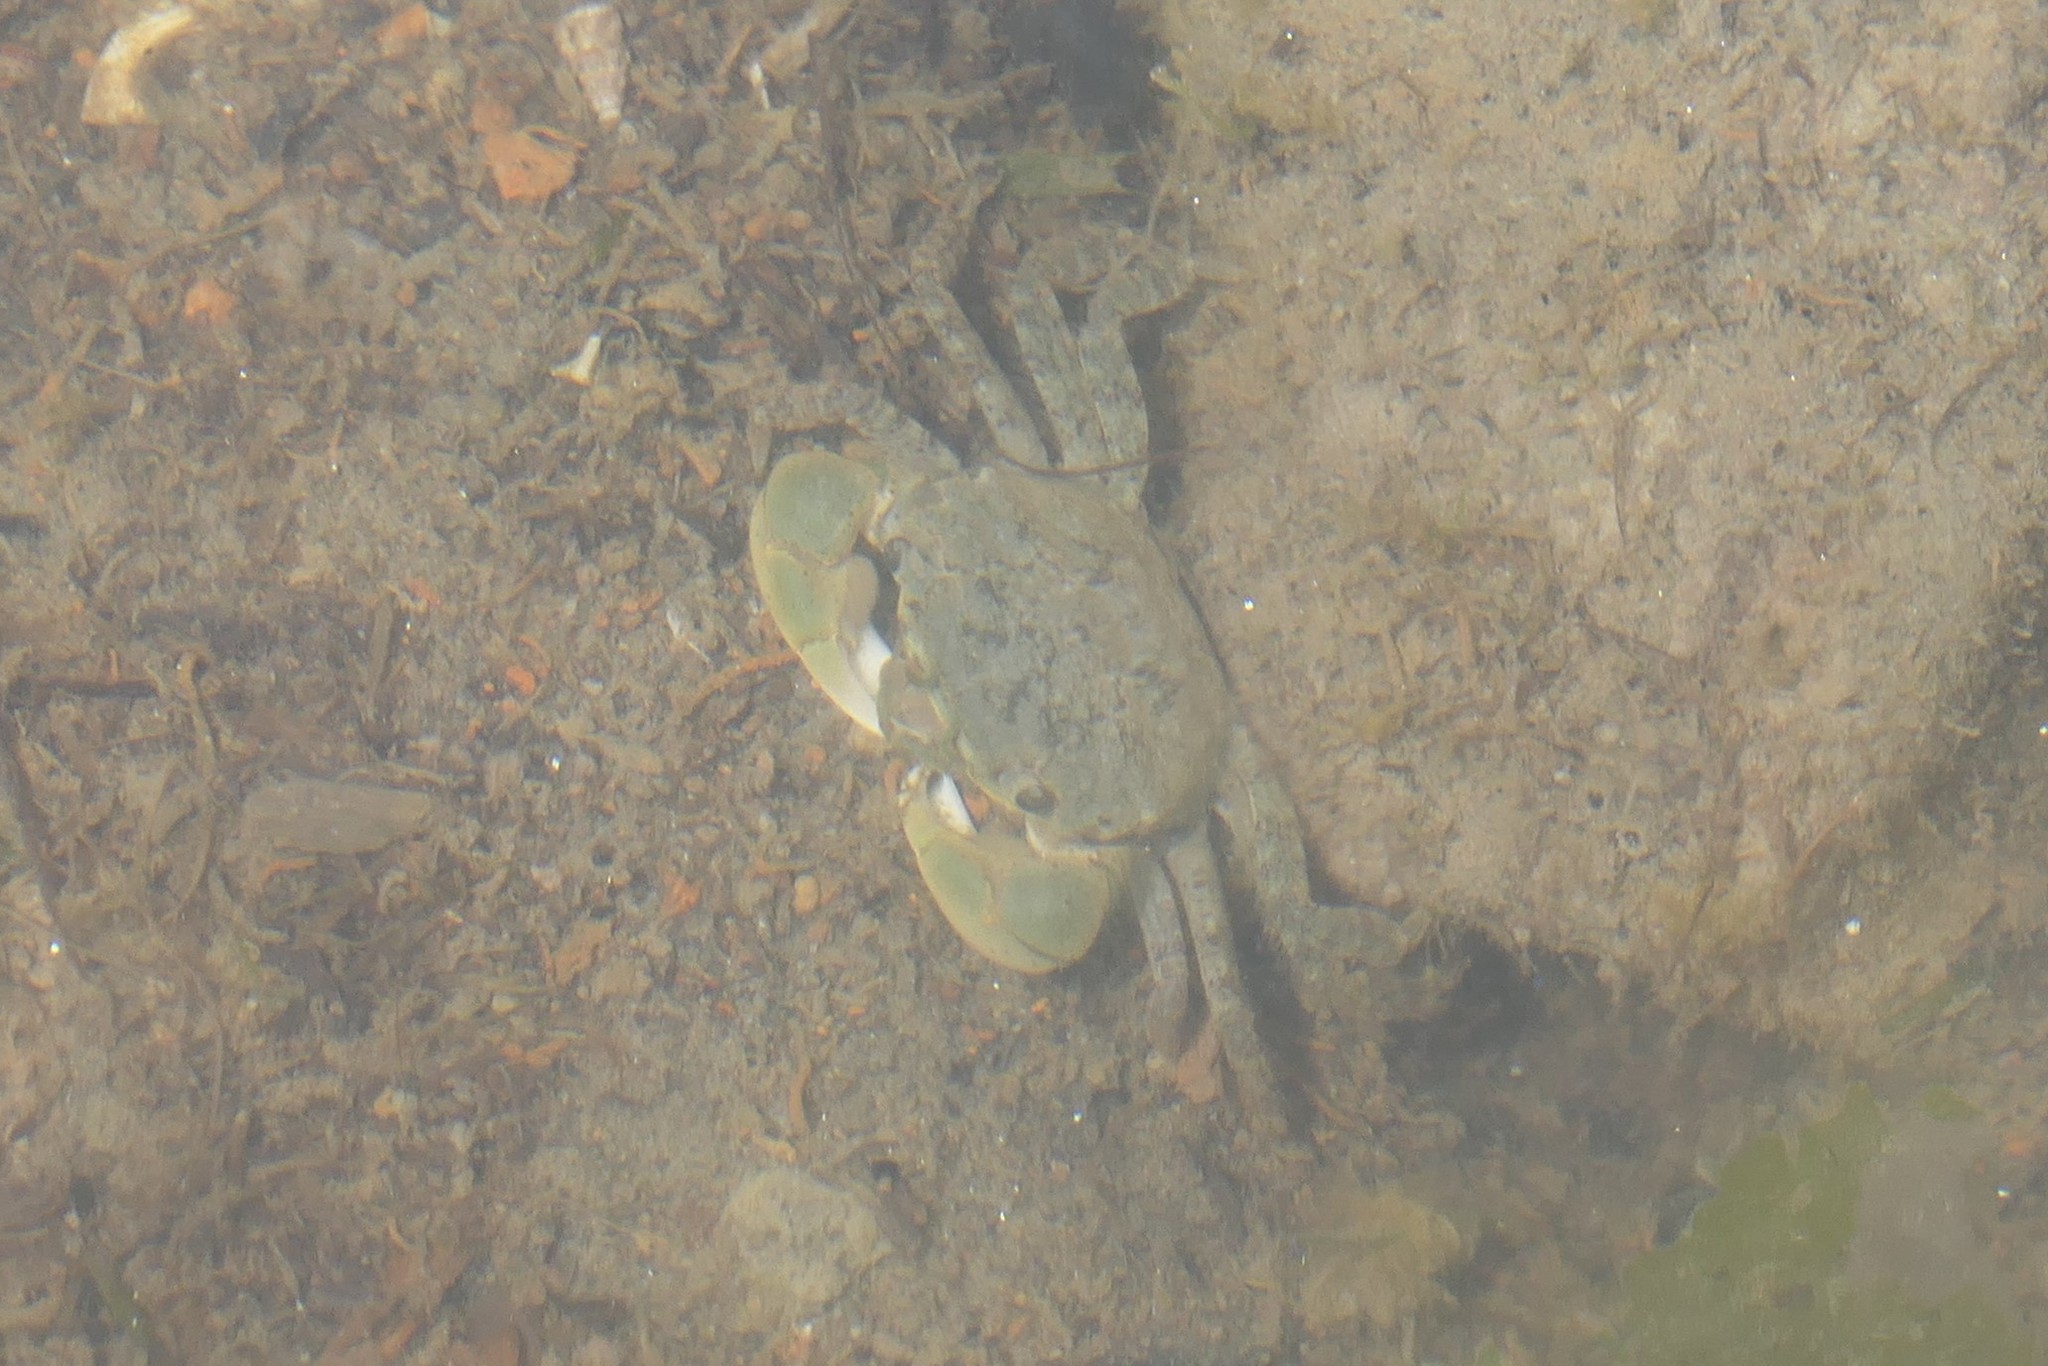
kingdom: Animalia
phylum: Arthropoda
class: Malacostraca
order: Decapoda
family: Varunidae
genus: Hemigrapsus
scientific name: Hemigrapsus oregonensis
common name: Yellow shore crab
